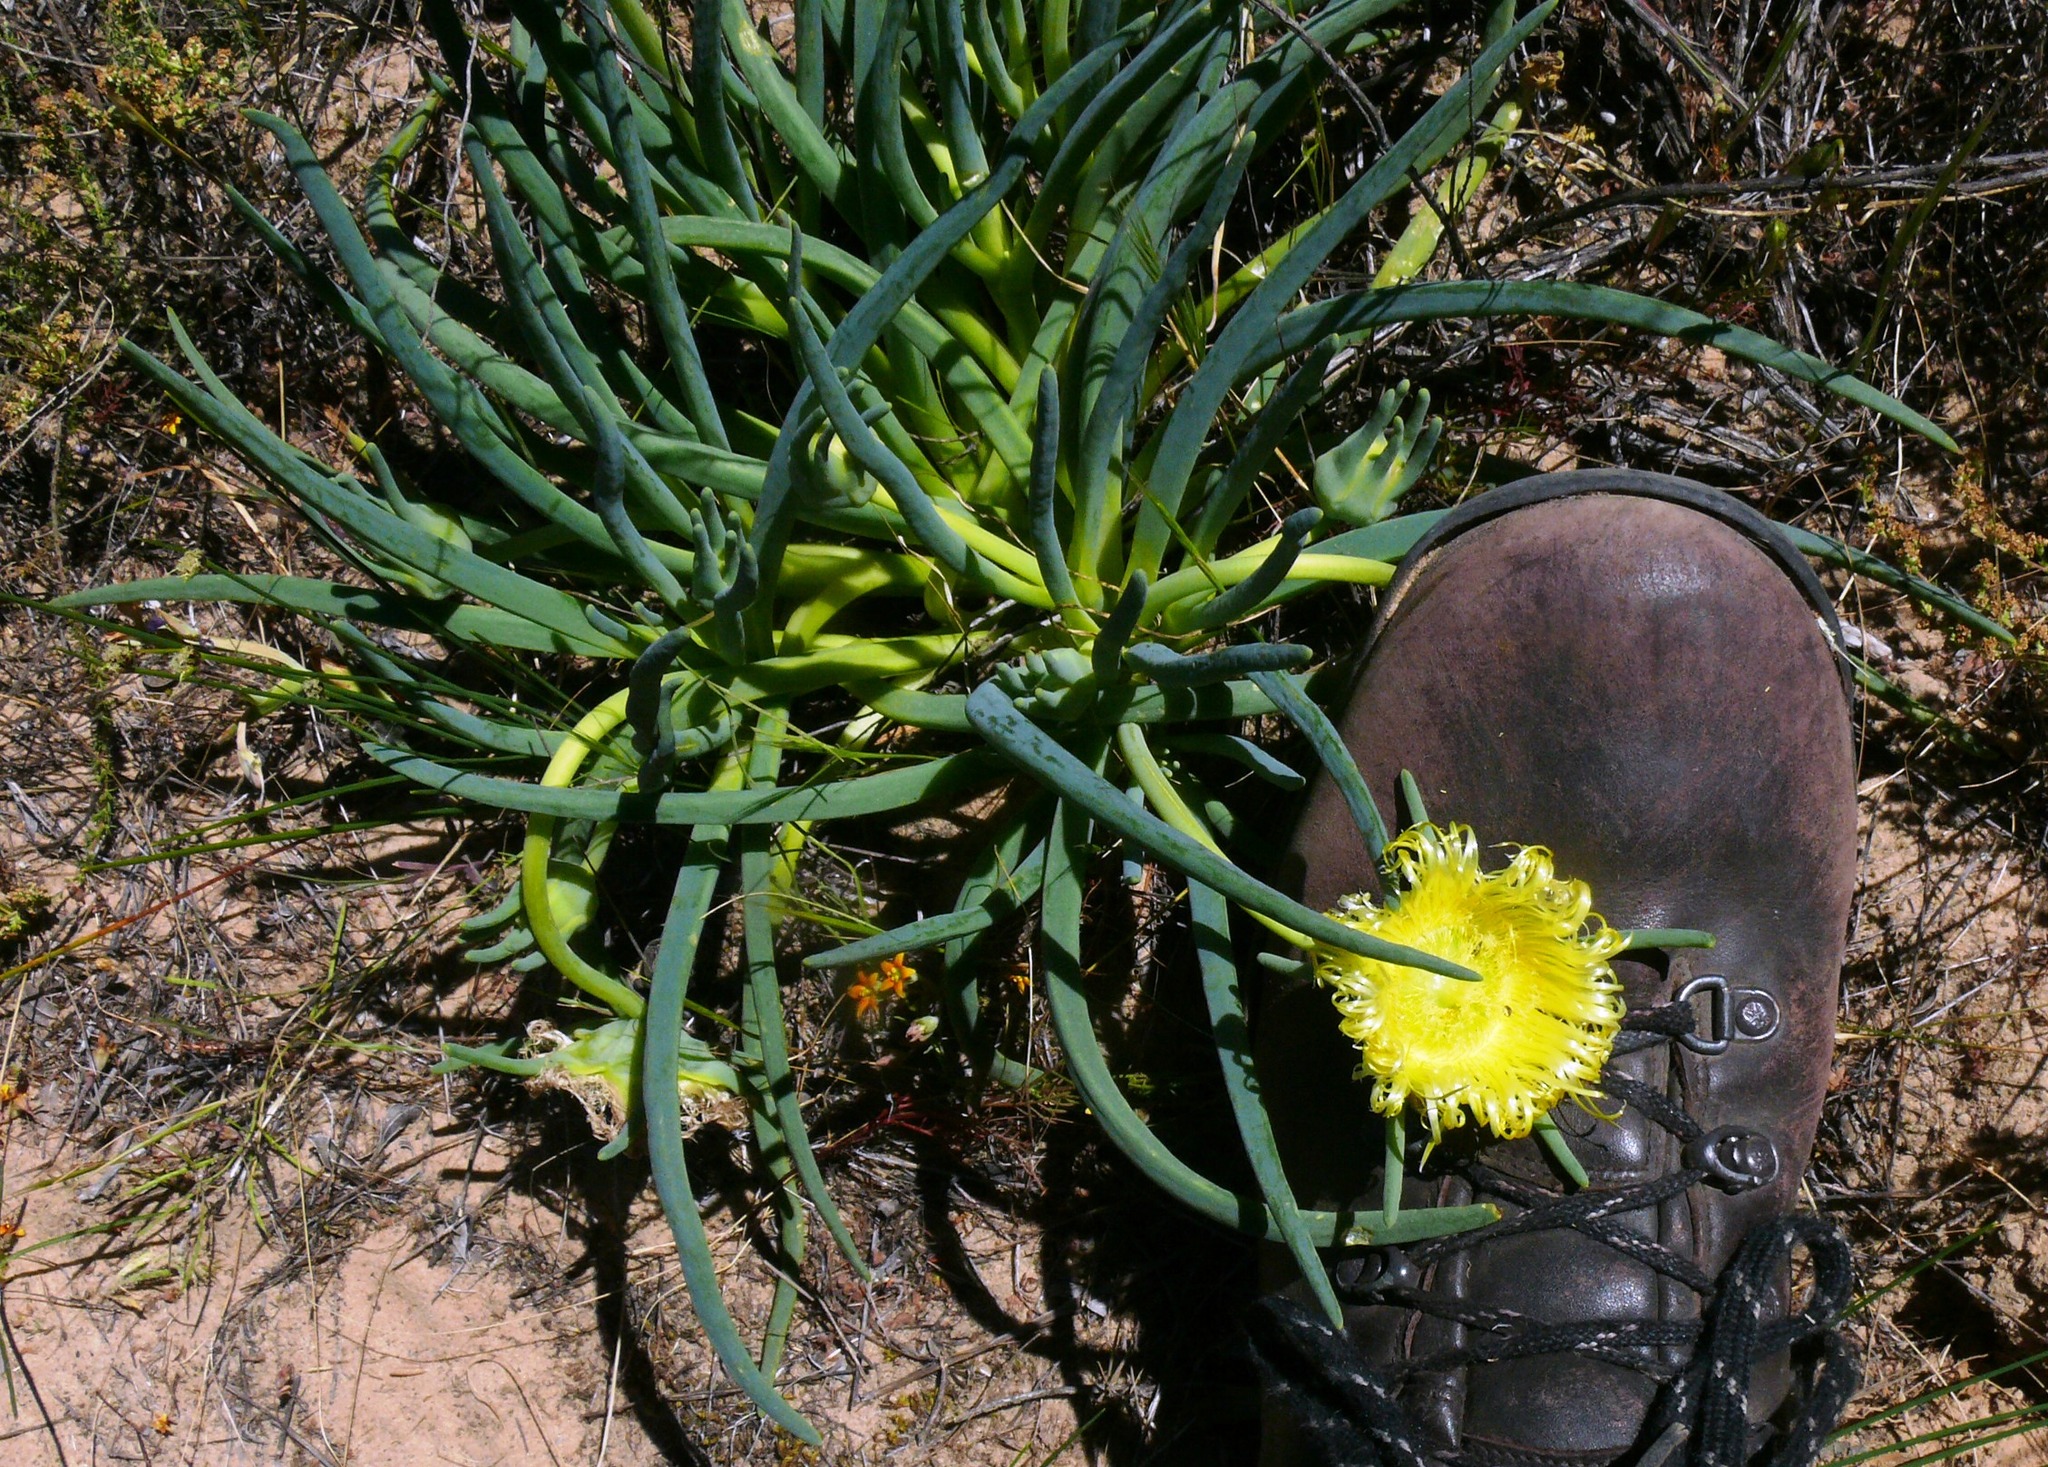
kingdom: Plantae
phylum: Tracheophyta
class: Magnoliopsida
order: Caryophyllales
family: Aizoaceae
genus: Conicosia
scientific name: Conicosia pugioniformis
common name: Narrow-leaved iceplant
